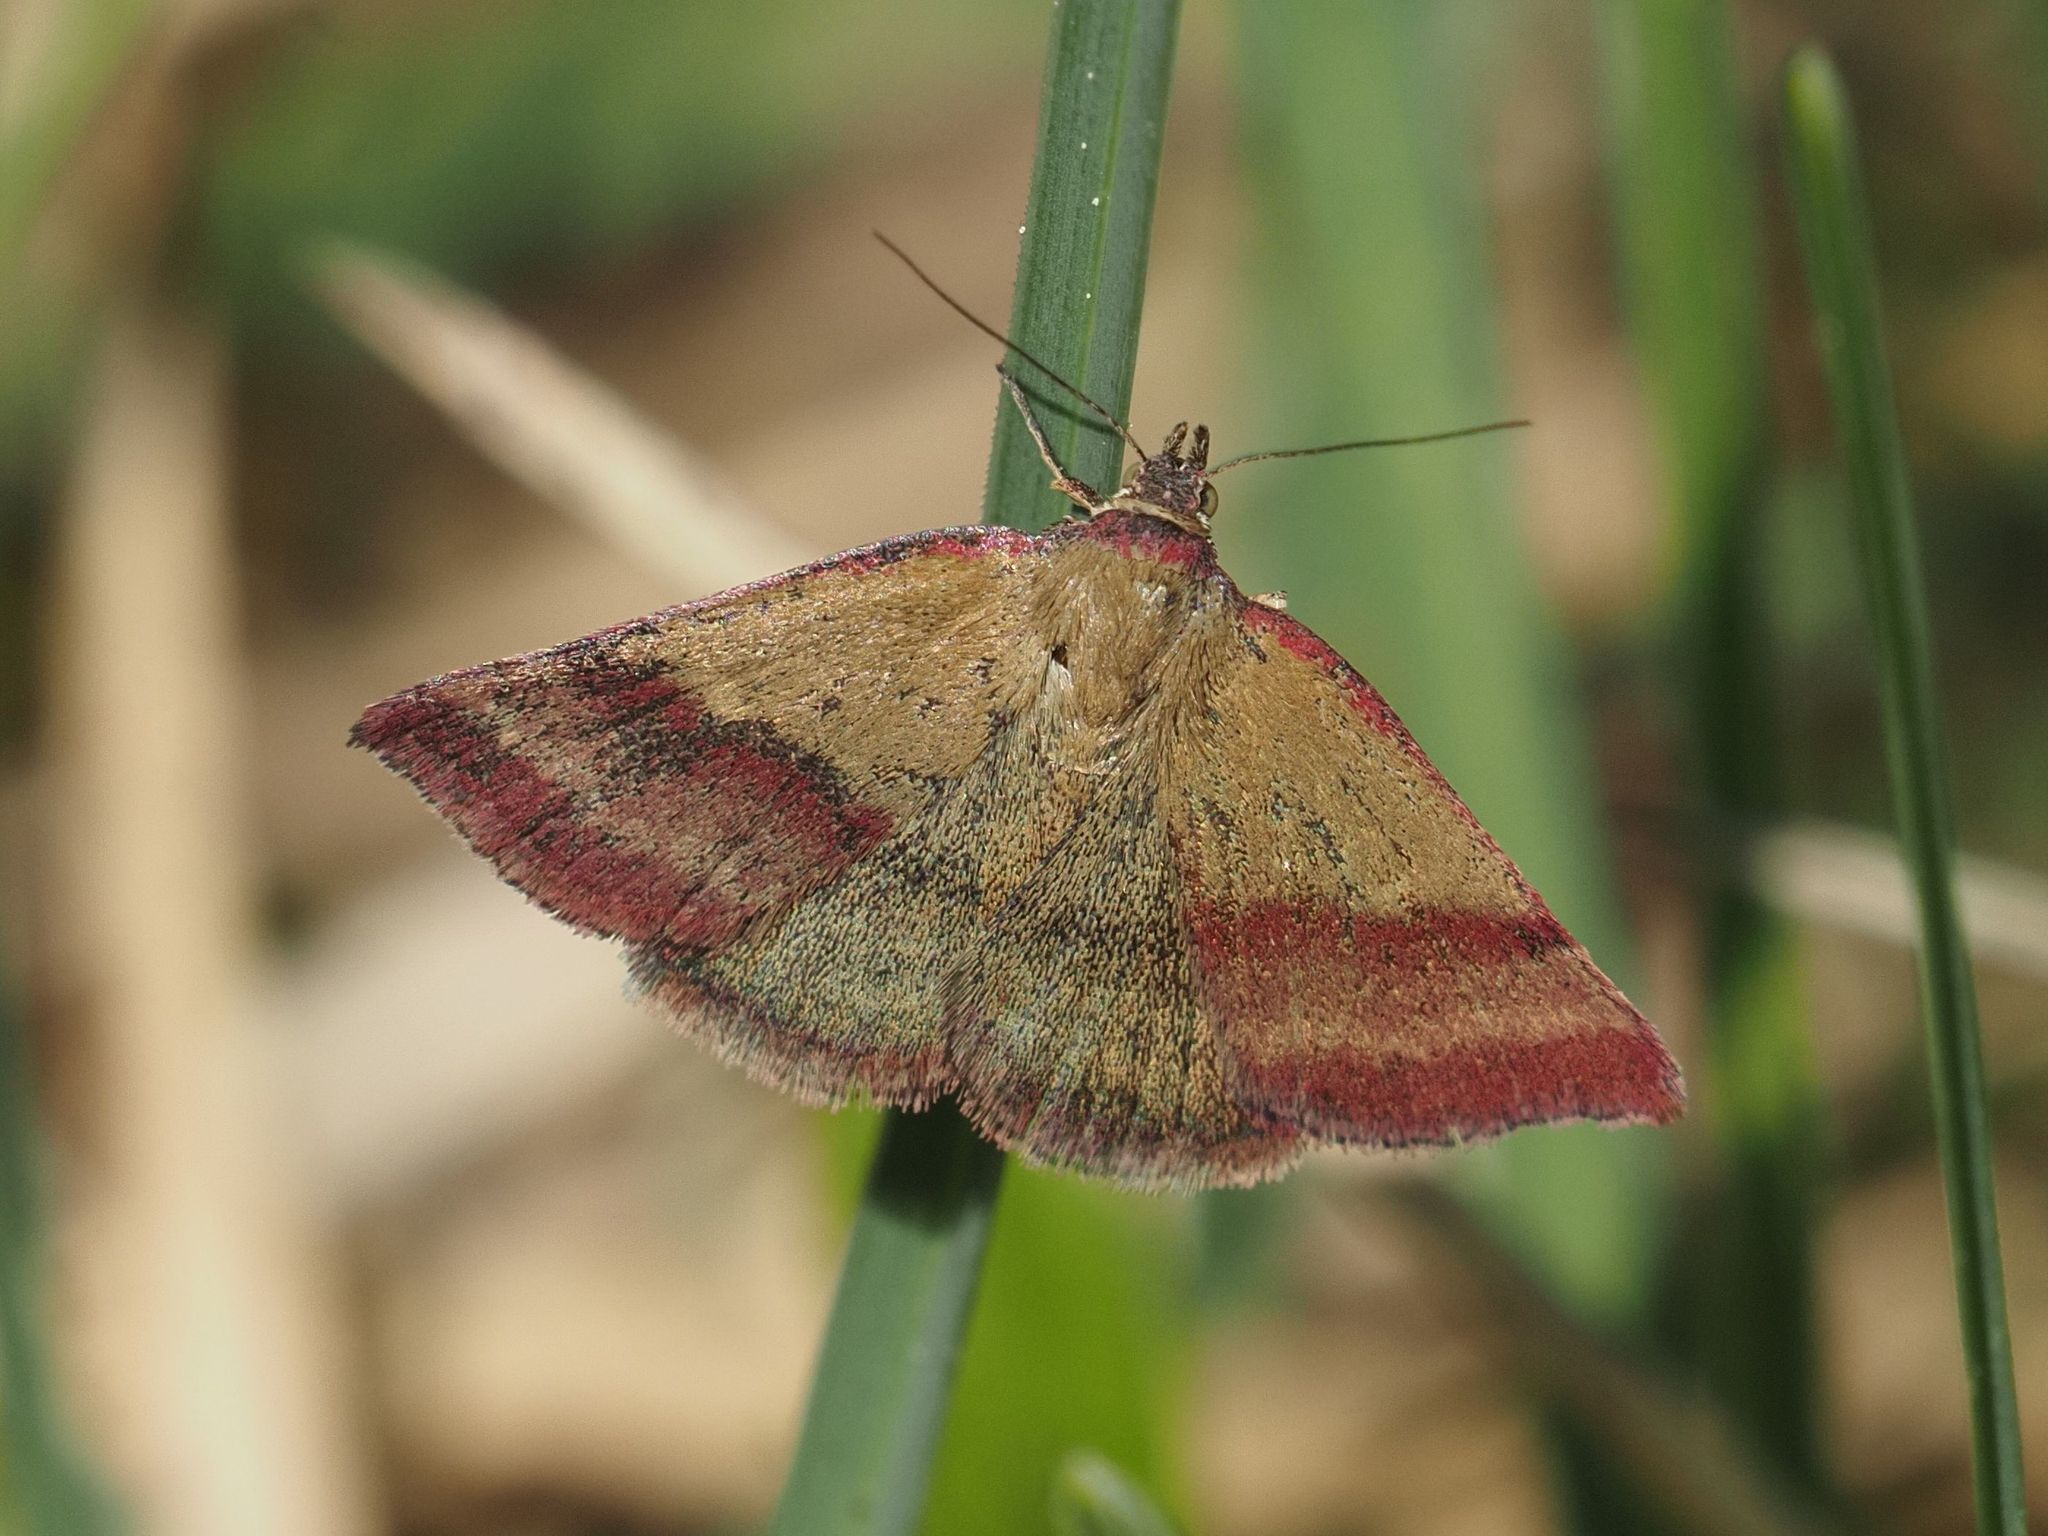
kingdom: Animalia
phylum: Arthropoda
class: Insecta
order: Lepidoptera
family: Erebidae
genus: Phytometra
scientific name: Phytometra viridaria
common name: Small purple-barred
